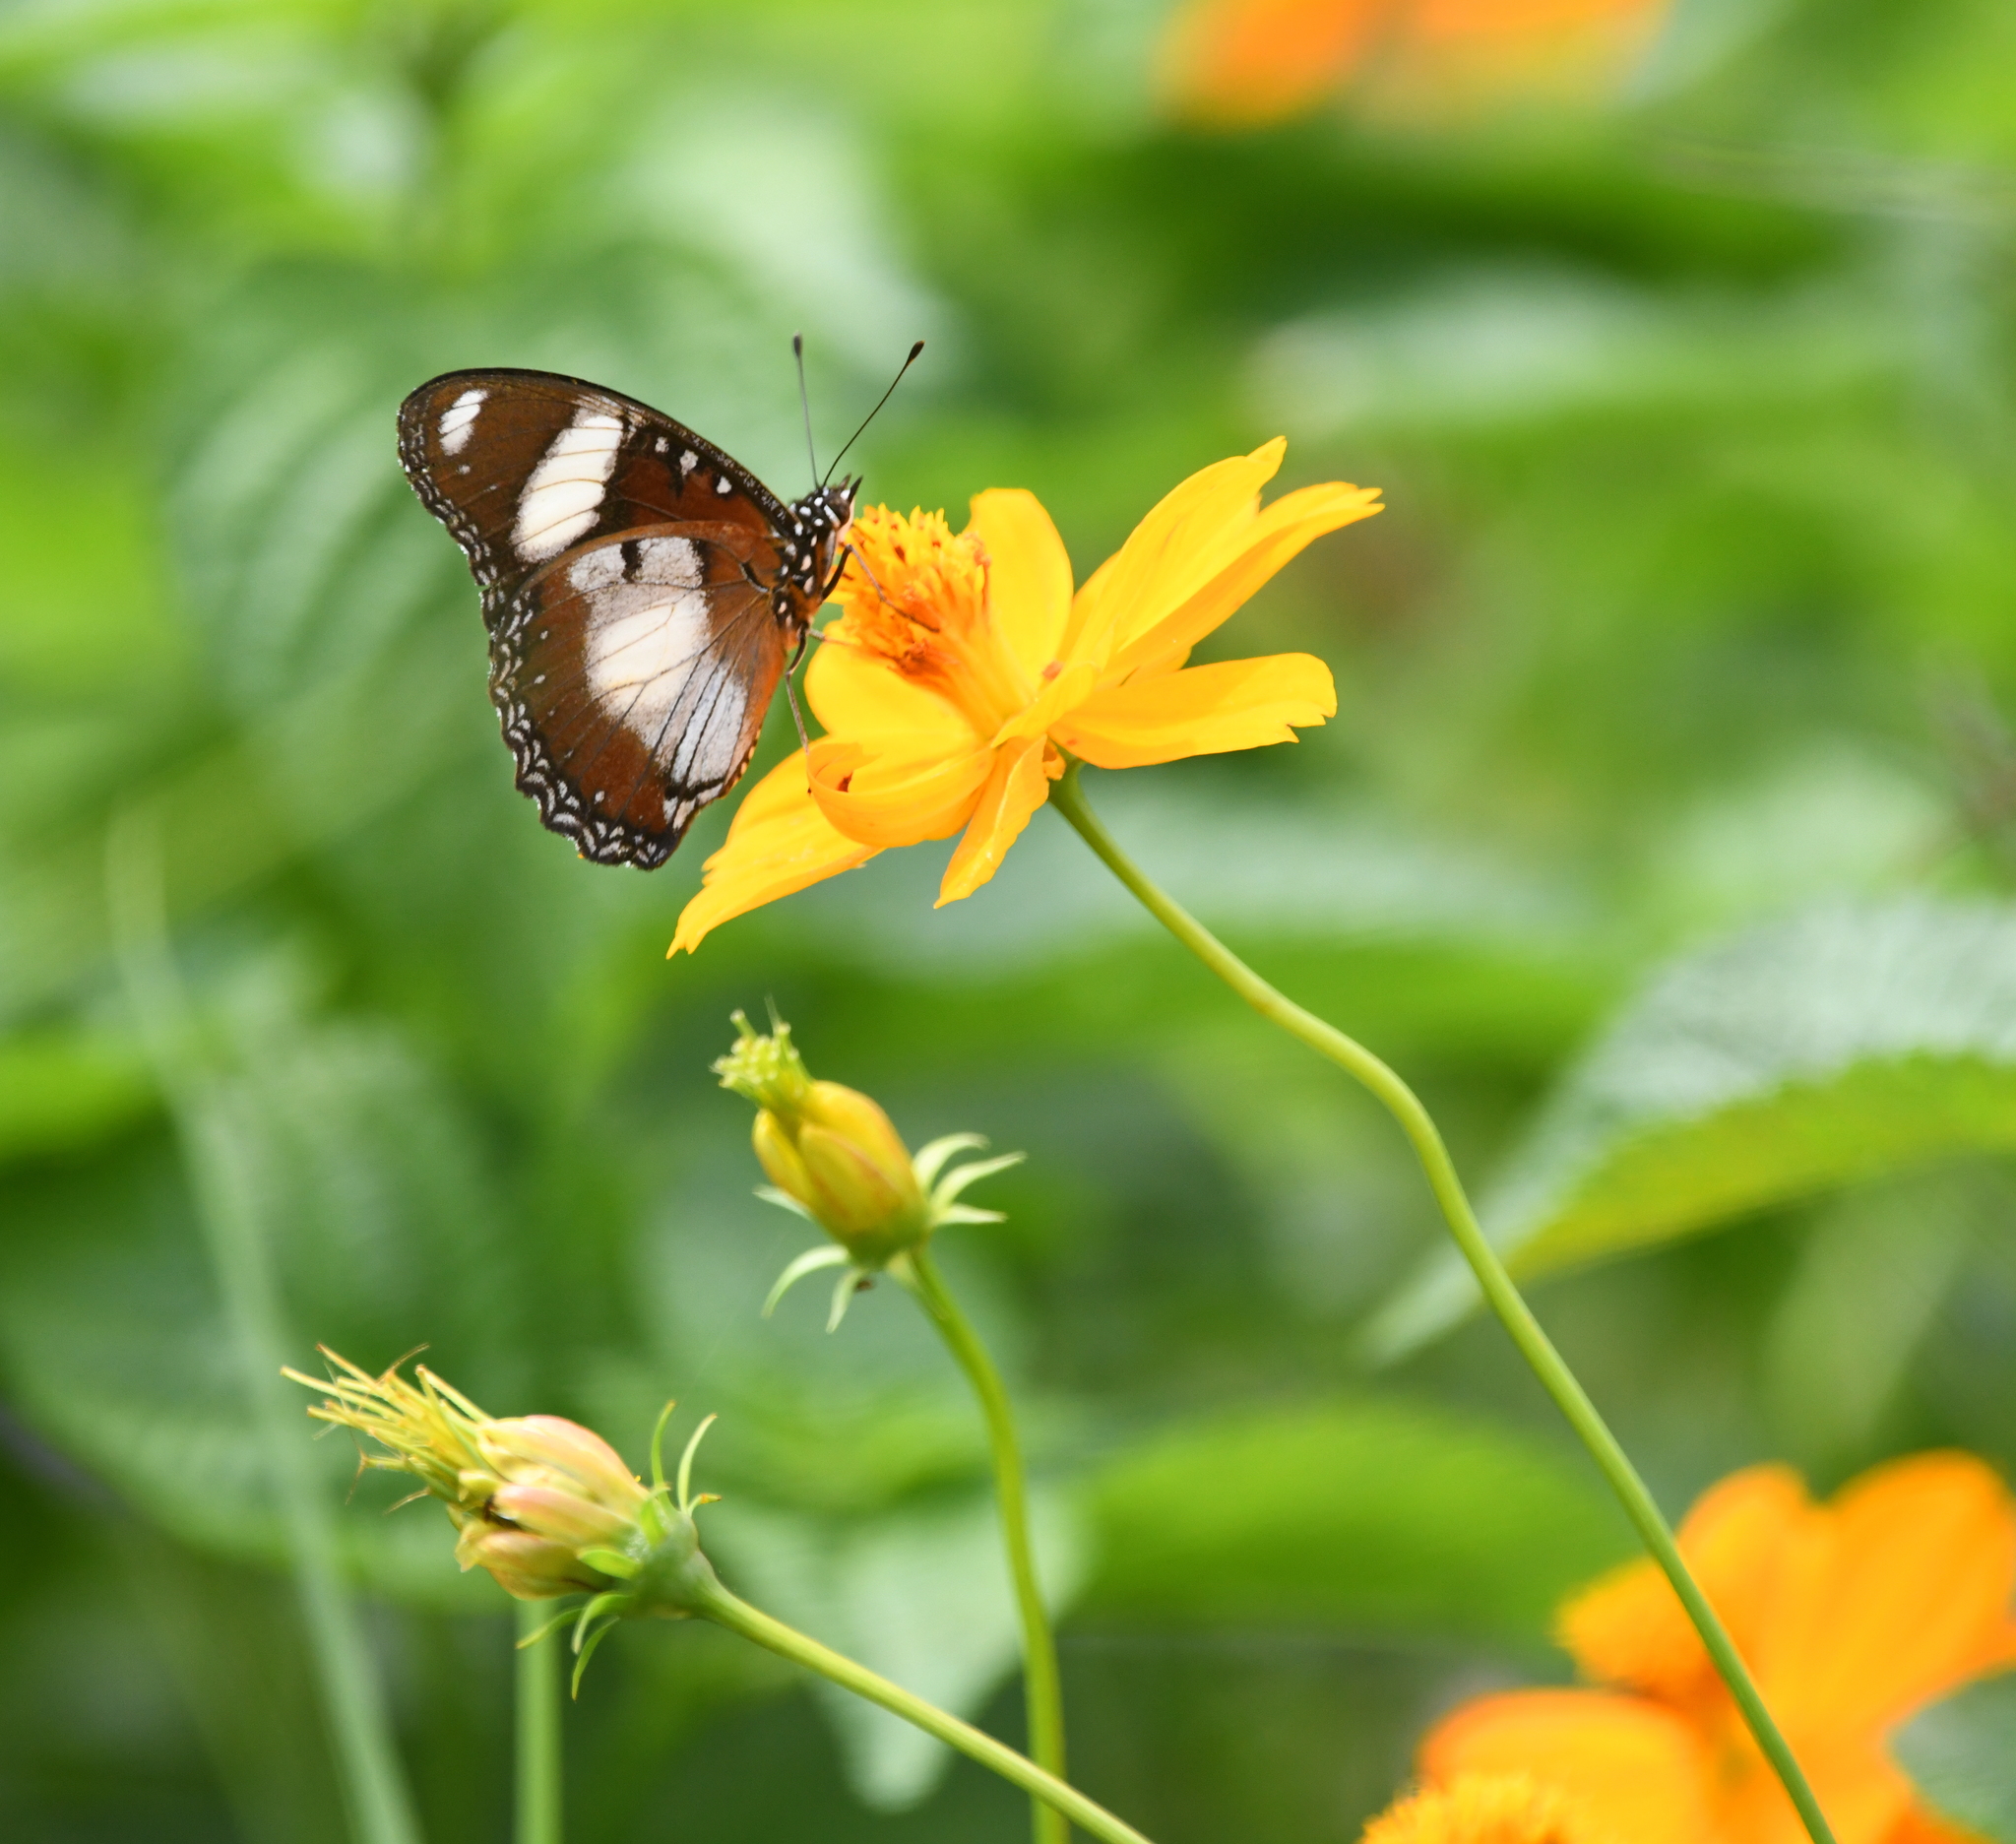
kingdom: Animalia
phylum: Arthropoda
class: Insecta
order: Lepidoptera
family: Nymphalidae
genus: Hypolimnas
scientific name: Hypolimnas misippus
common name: False plain tiger
